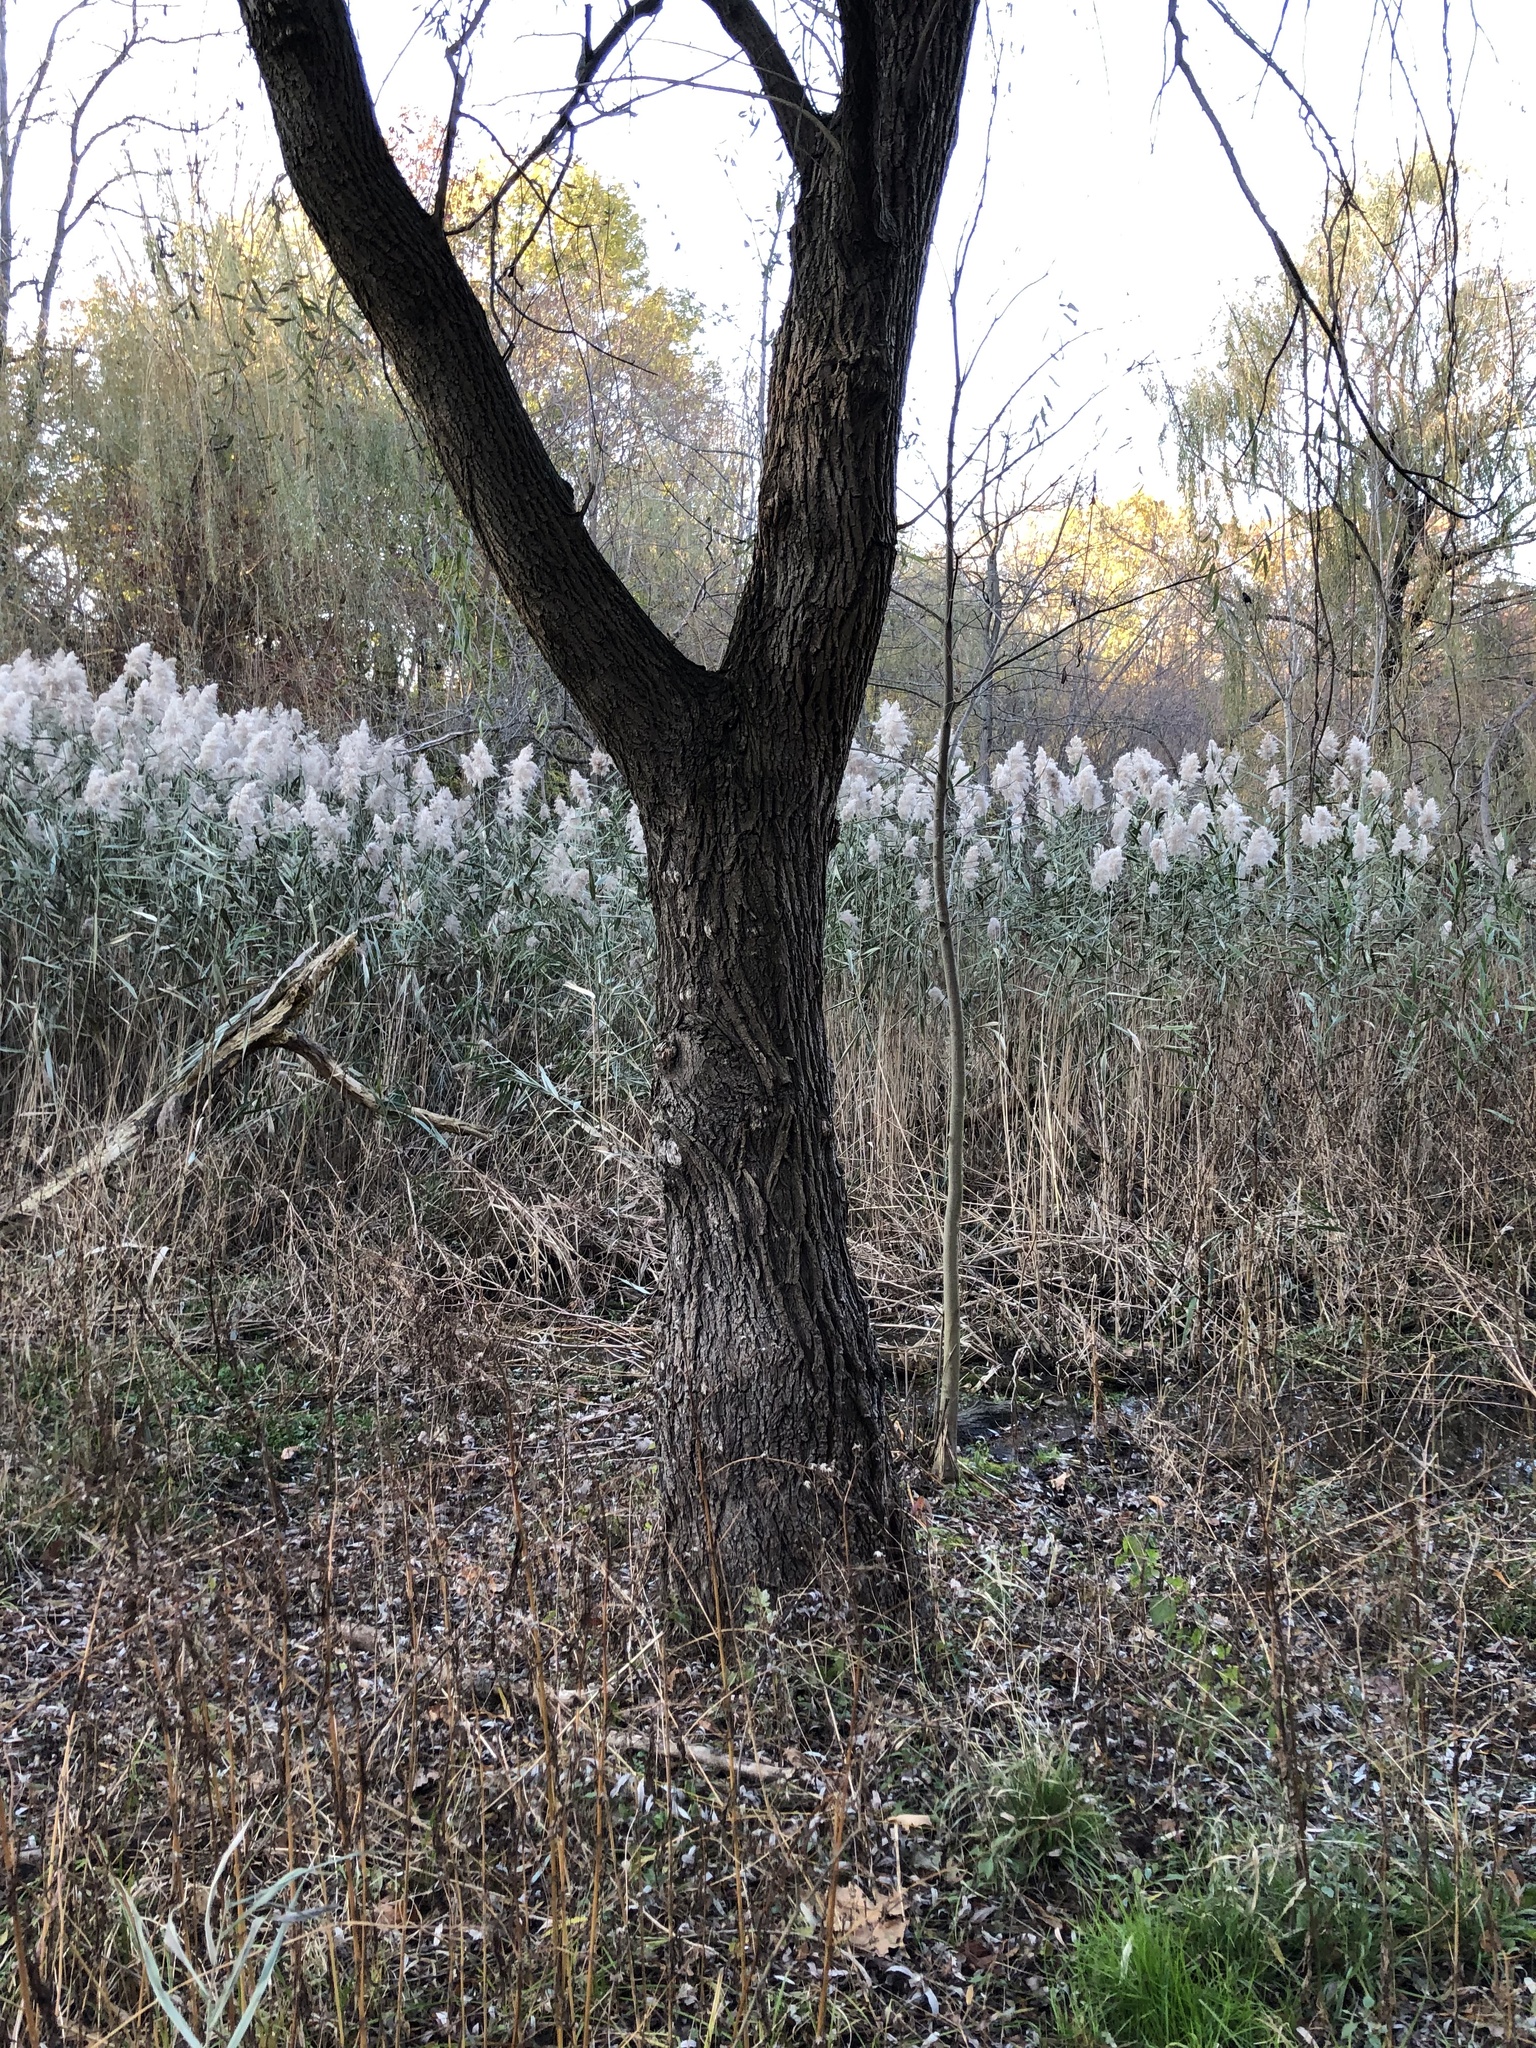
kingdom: Plantae
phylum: Tracheophyta
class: Magnoliopsida
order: Malpighiales
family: Salicaceae
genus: Salix
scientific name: Salix babylonica
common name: Weeping willow
